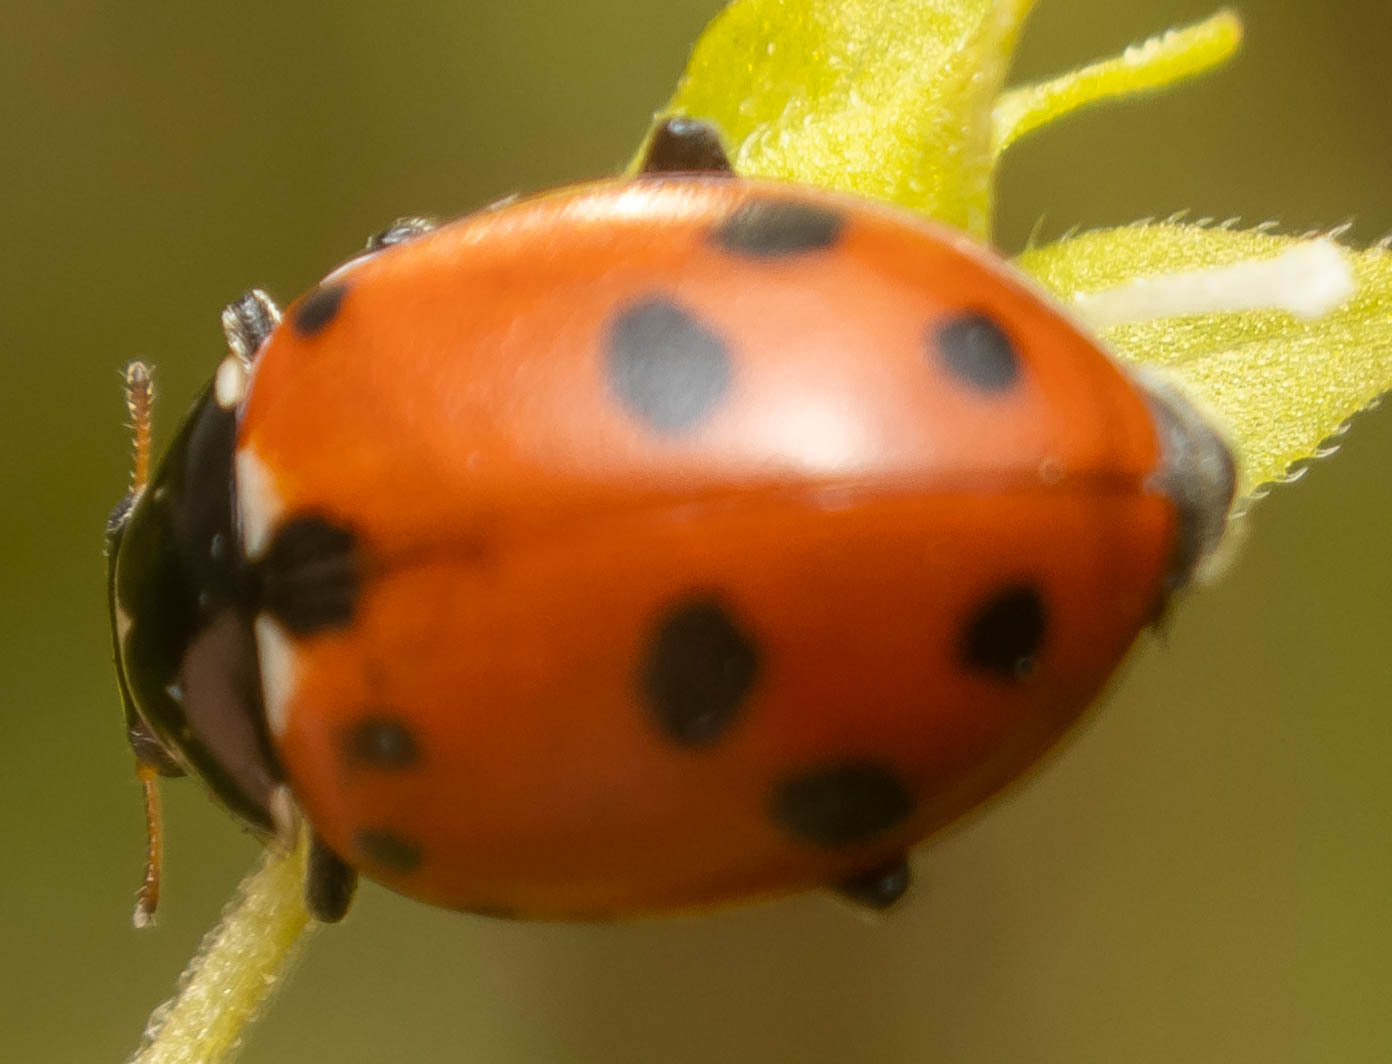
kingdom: Animalia
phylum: Arthropoda
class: Insecta
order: Coleoptera
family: Coccinellidae
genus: Hippodamia
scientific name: Hippodamia variegata
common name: Ladybird beetle
